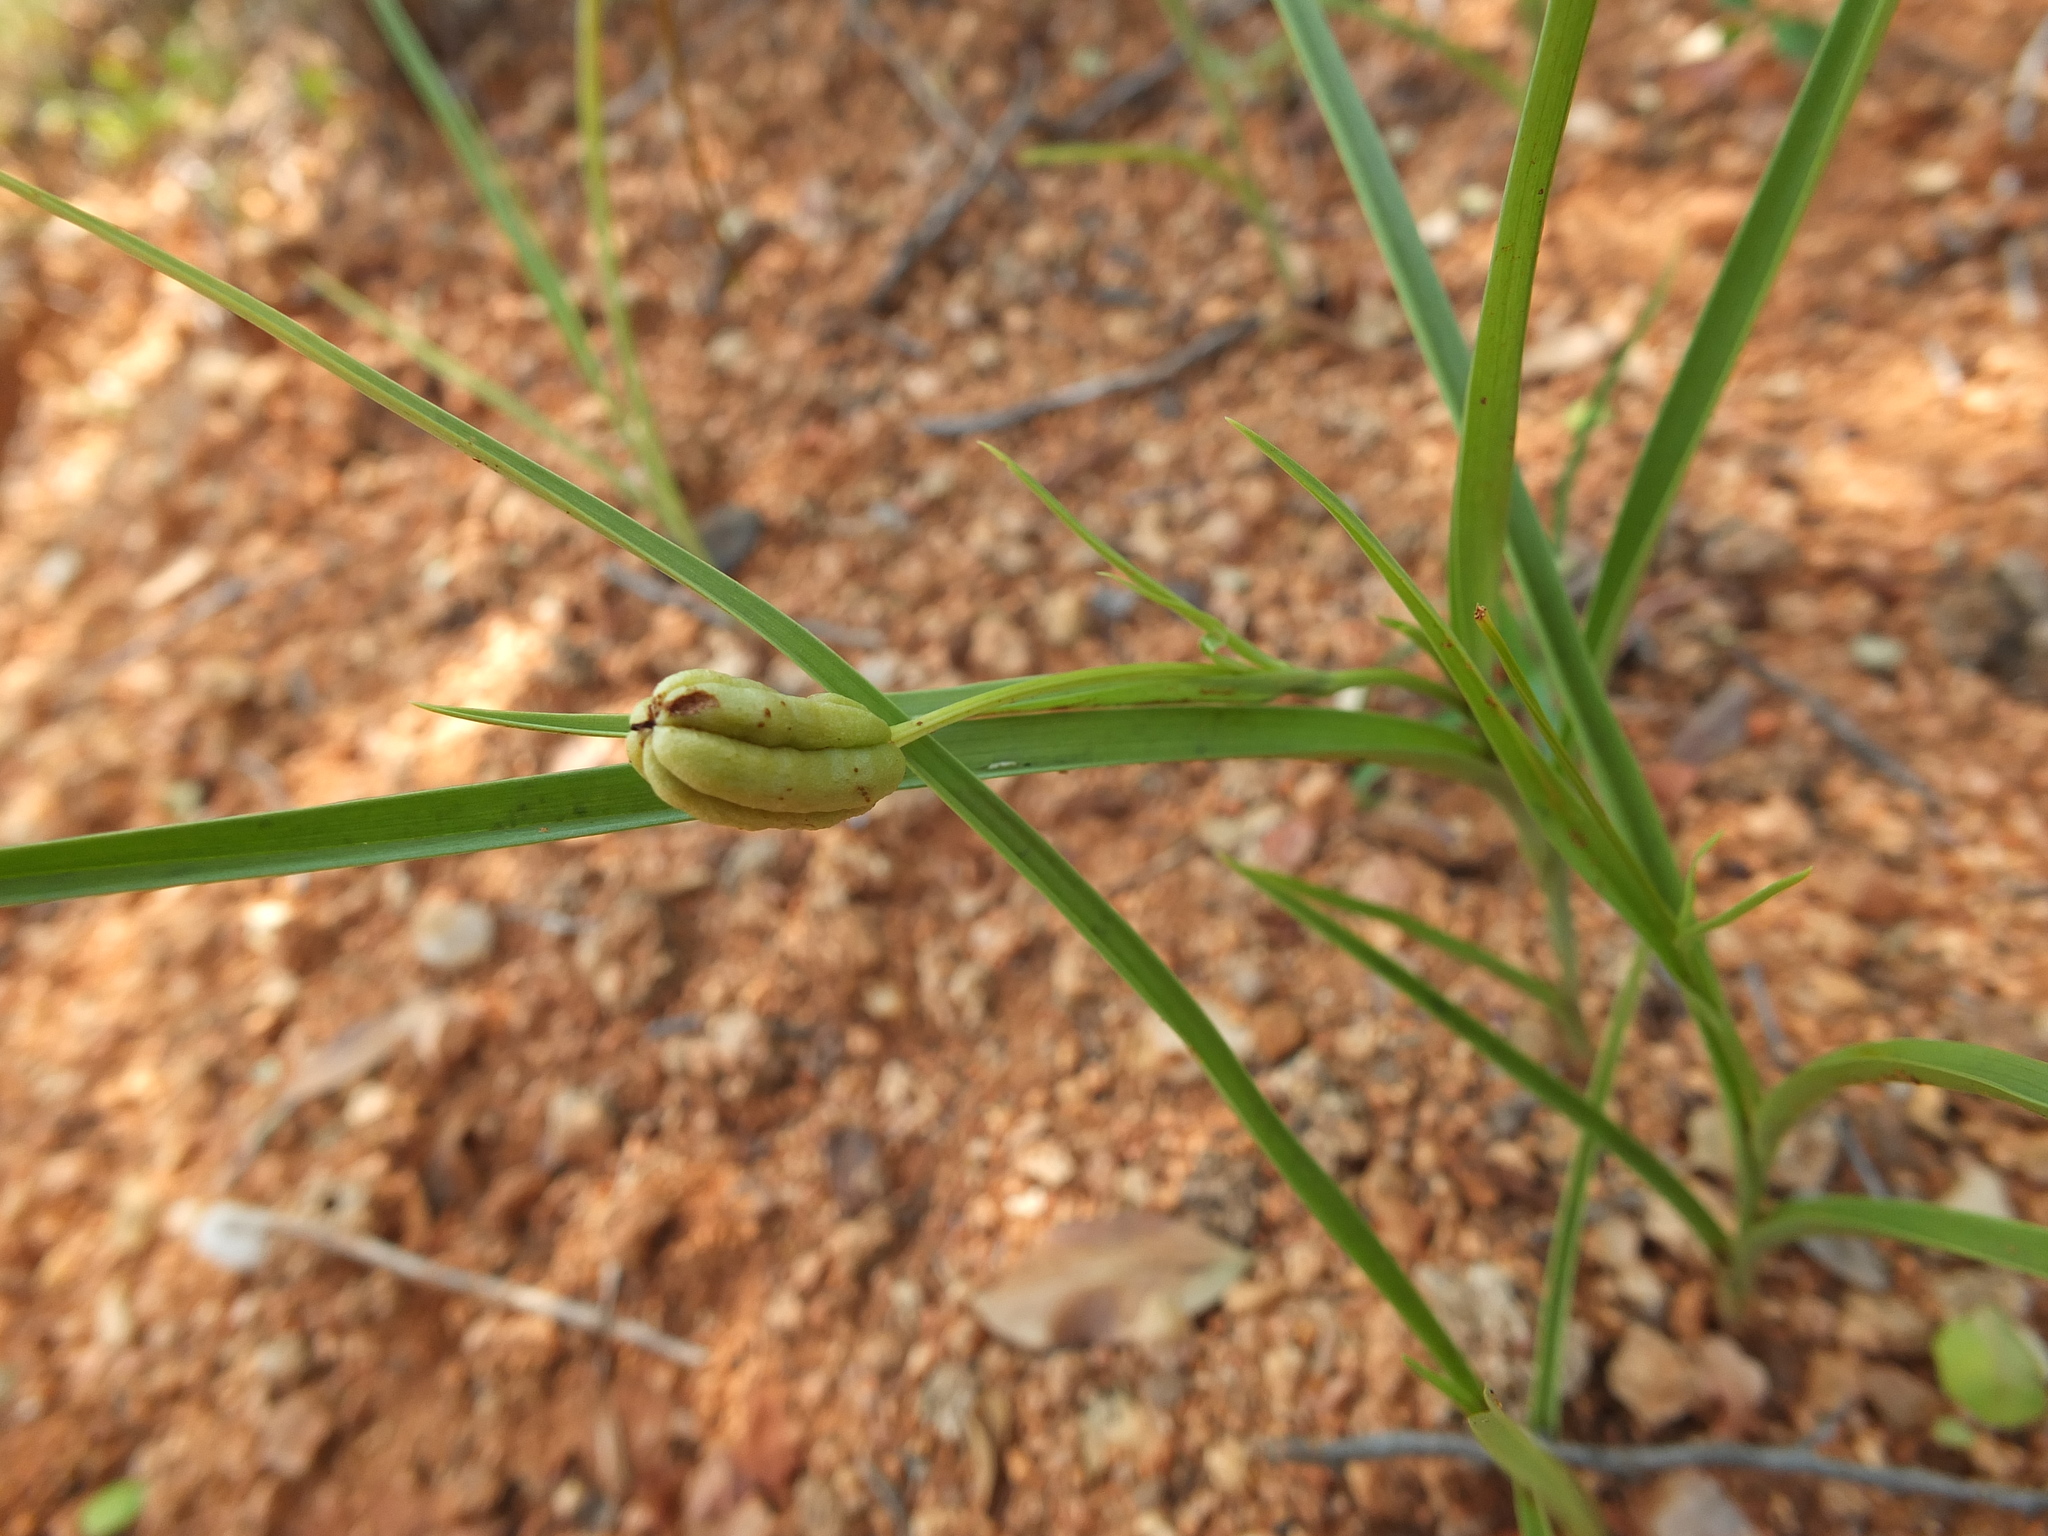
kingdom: Plantae
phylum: Tracheophyta
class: Liliopsida
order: Liliales
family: Colchicaceae
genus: Iphigenia
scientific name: Iphigenia indica
